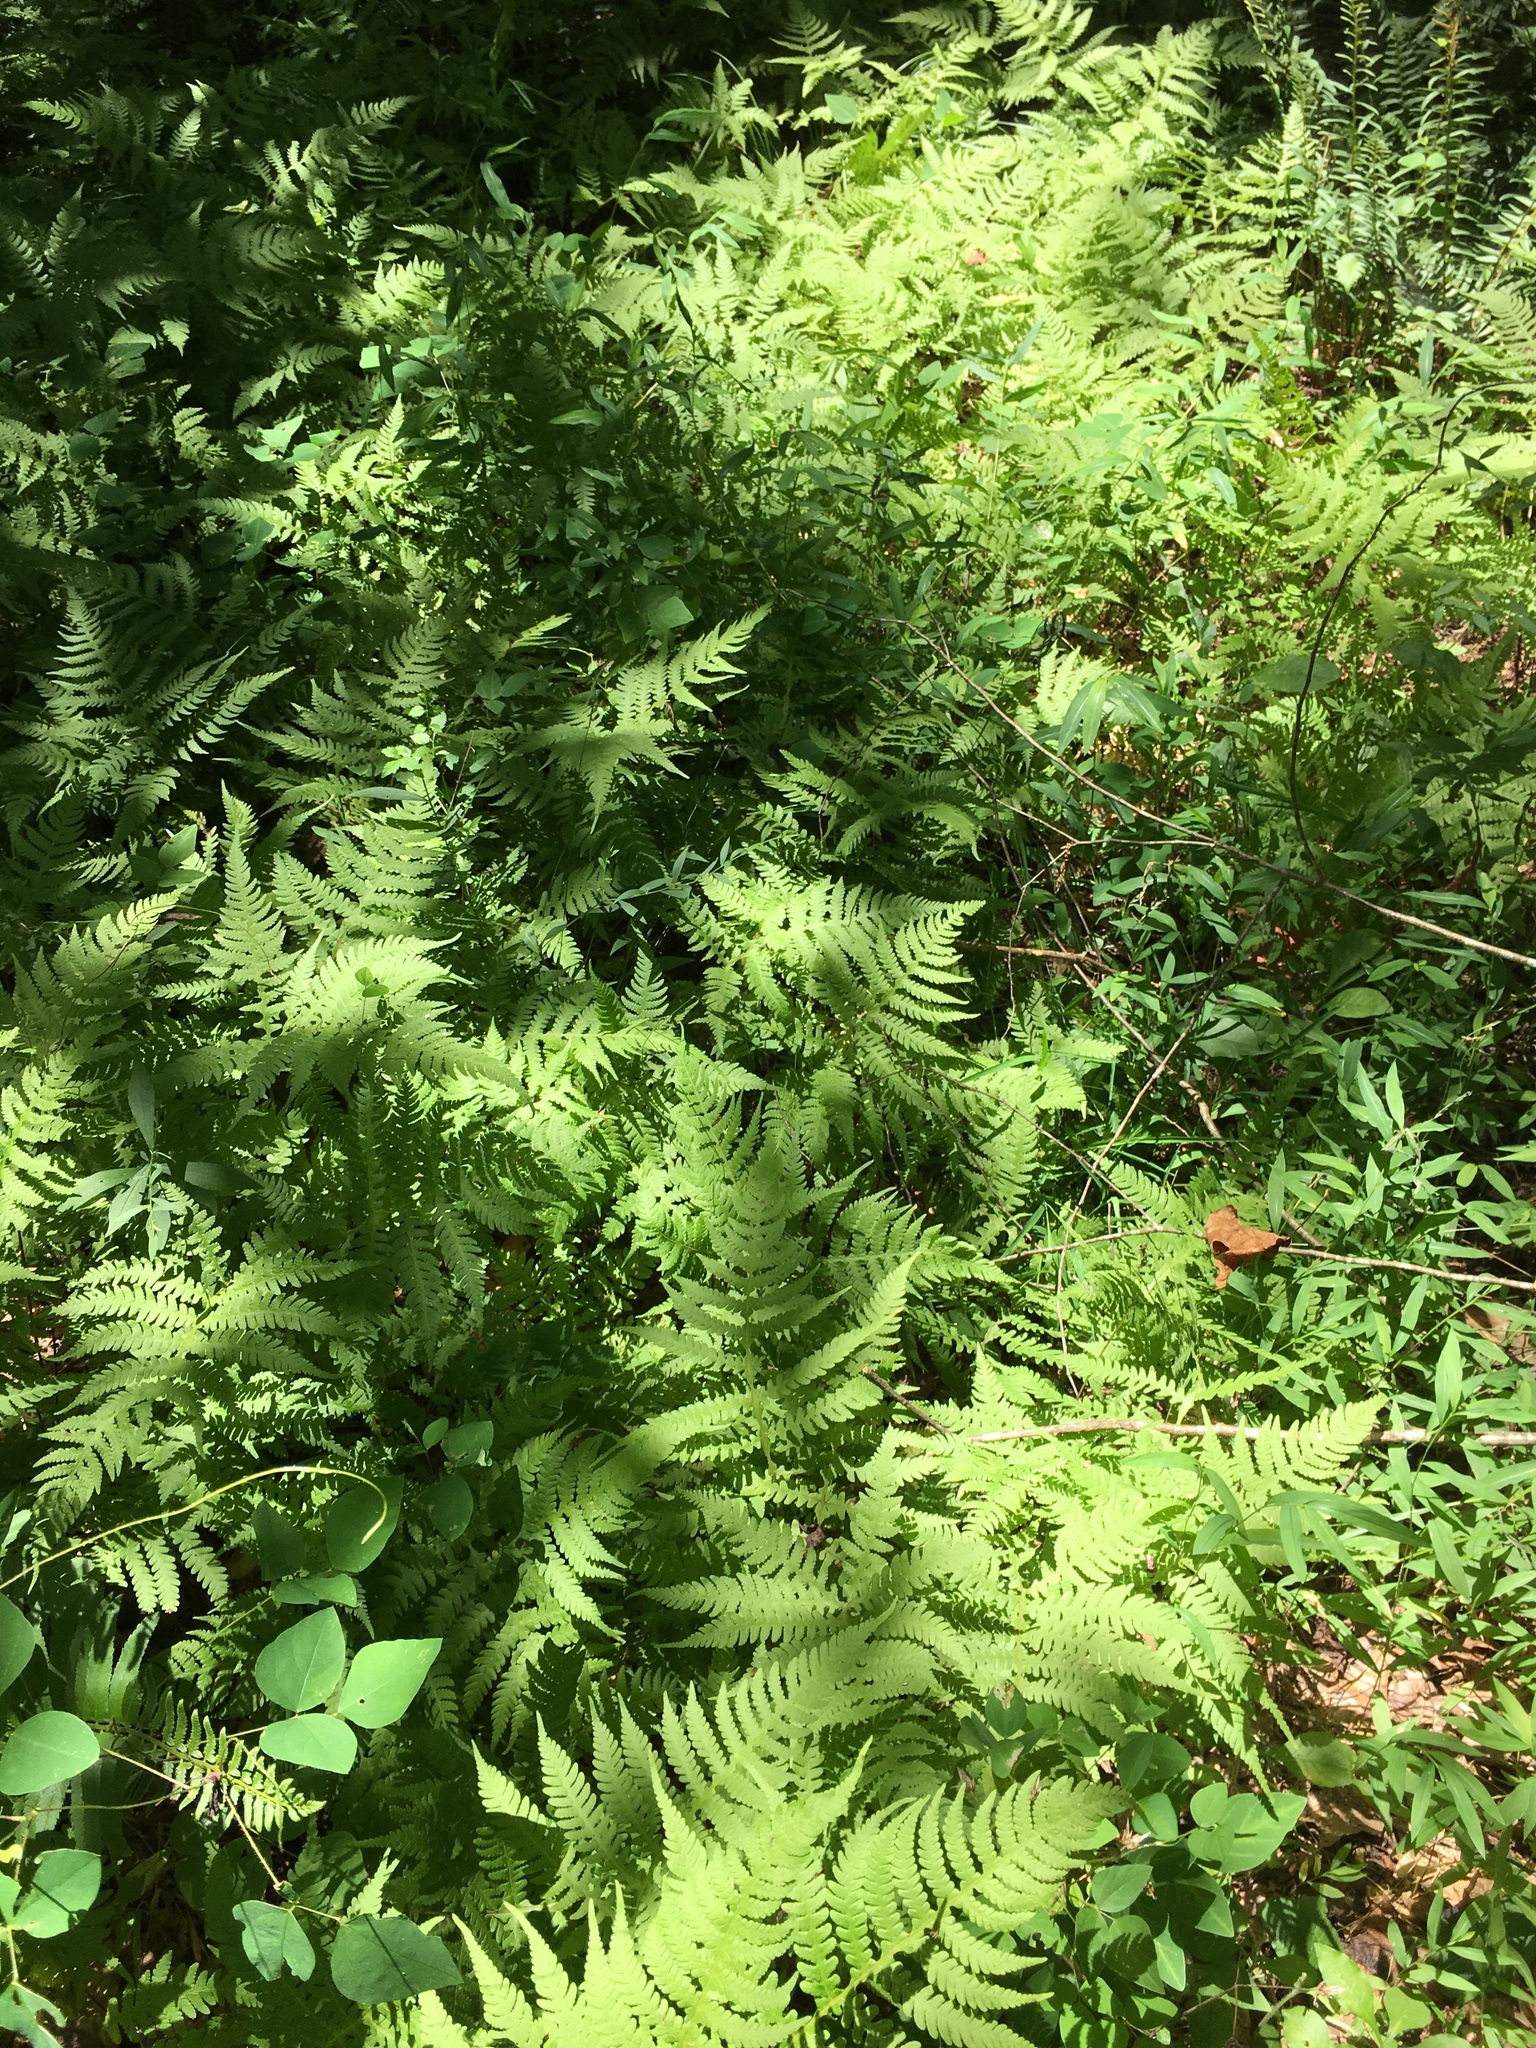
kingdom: Plantae
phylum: Tracheophyta
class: Polypodiopsida
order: Polypodiales
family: Thelypteridaceae
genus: Phegopteris
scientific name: Phegopteris hexagonoptera
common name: Broad beech fern
